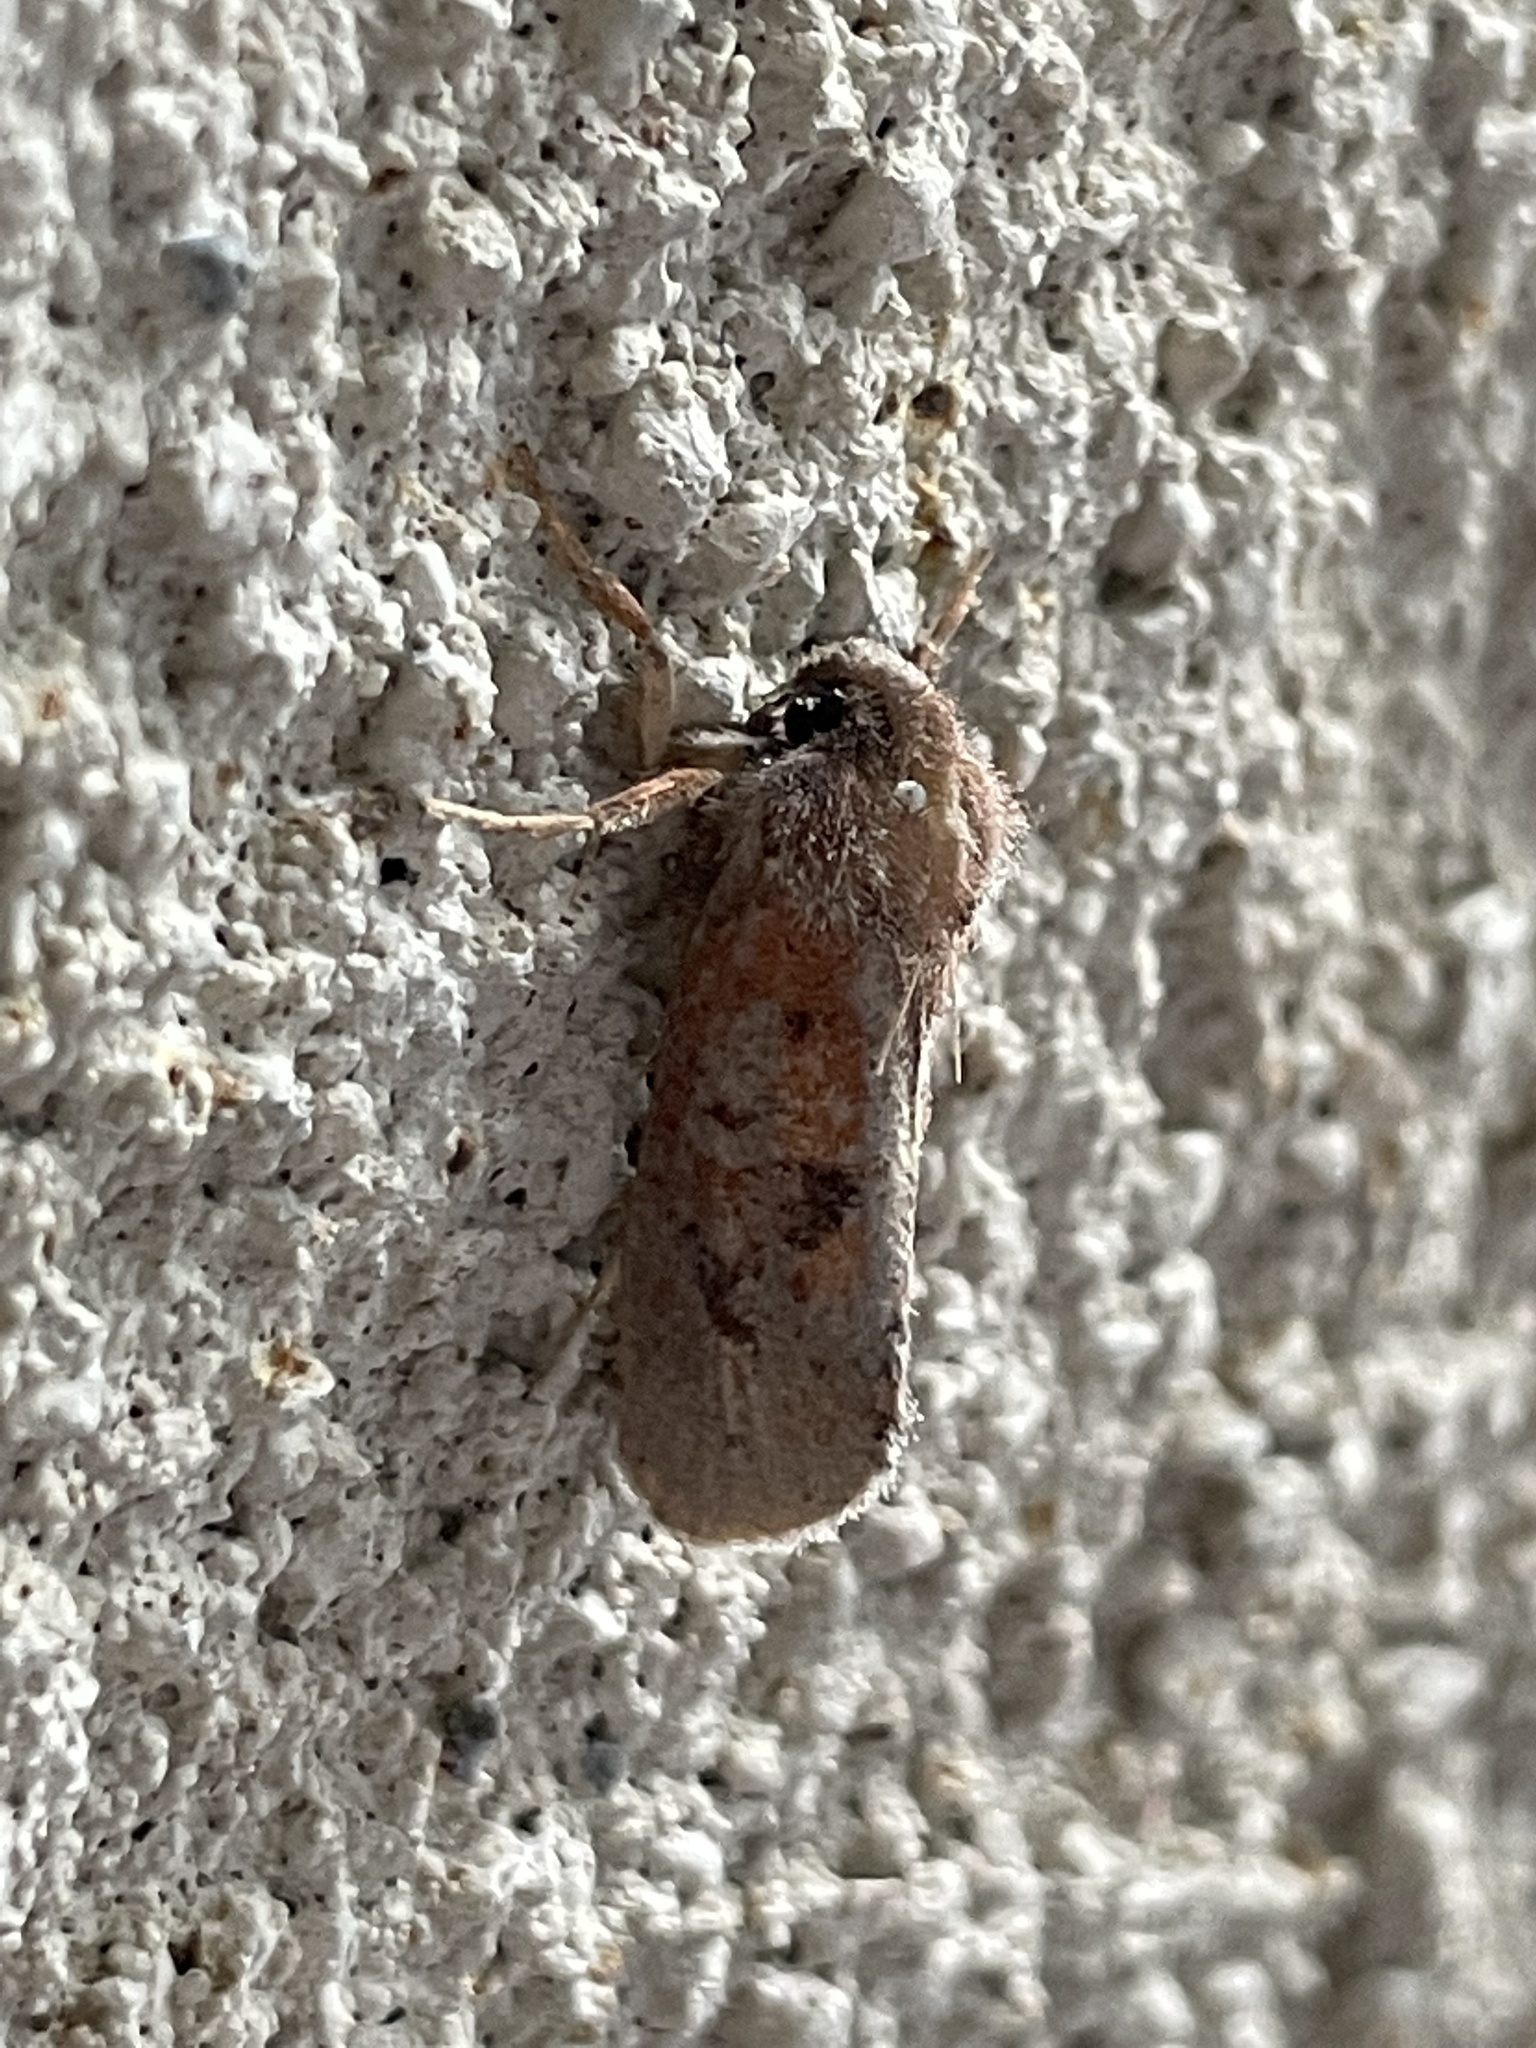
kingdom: Animalia
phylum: Arthropoda
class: Insecta
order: Lepidoptera
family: Tineidae
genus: Acrolophus
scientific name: Acrolophus plumifrontella
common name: Eastern grass tubeworm moth
